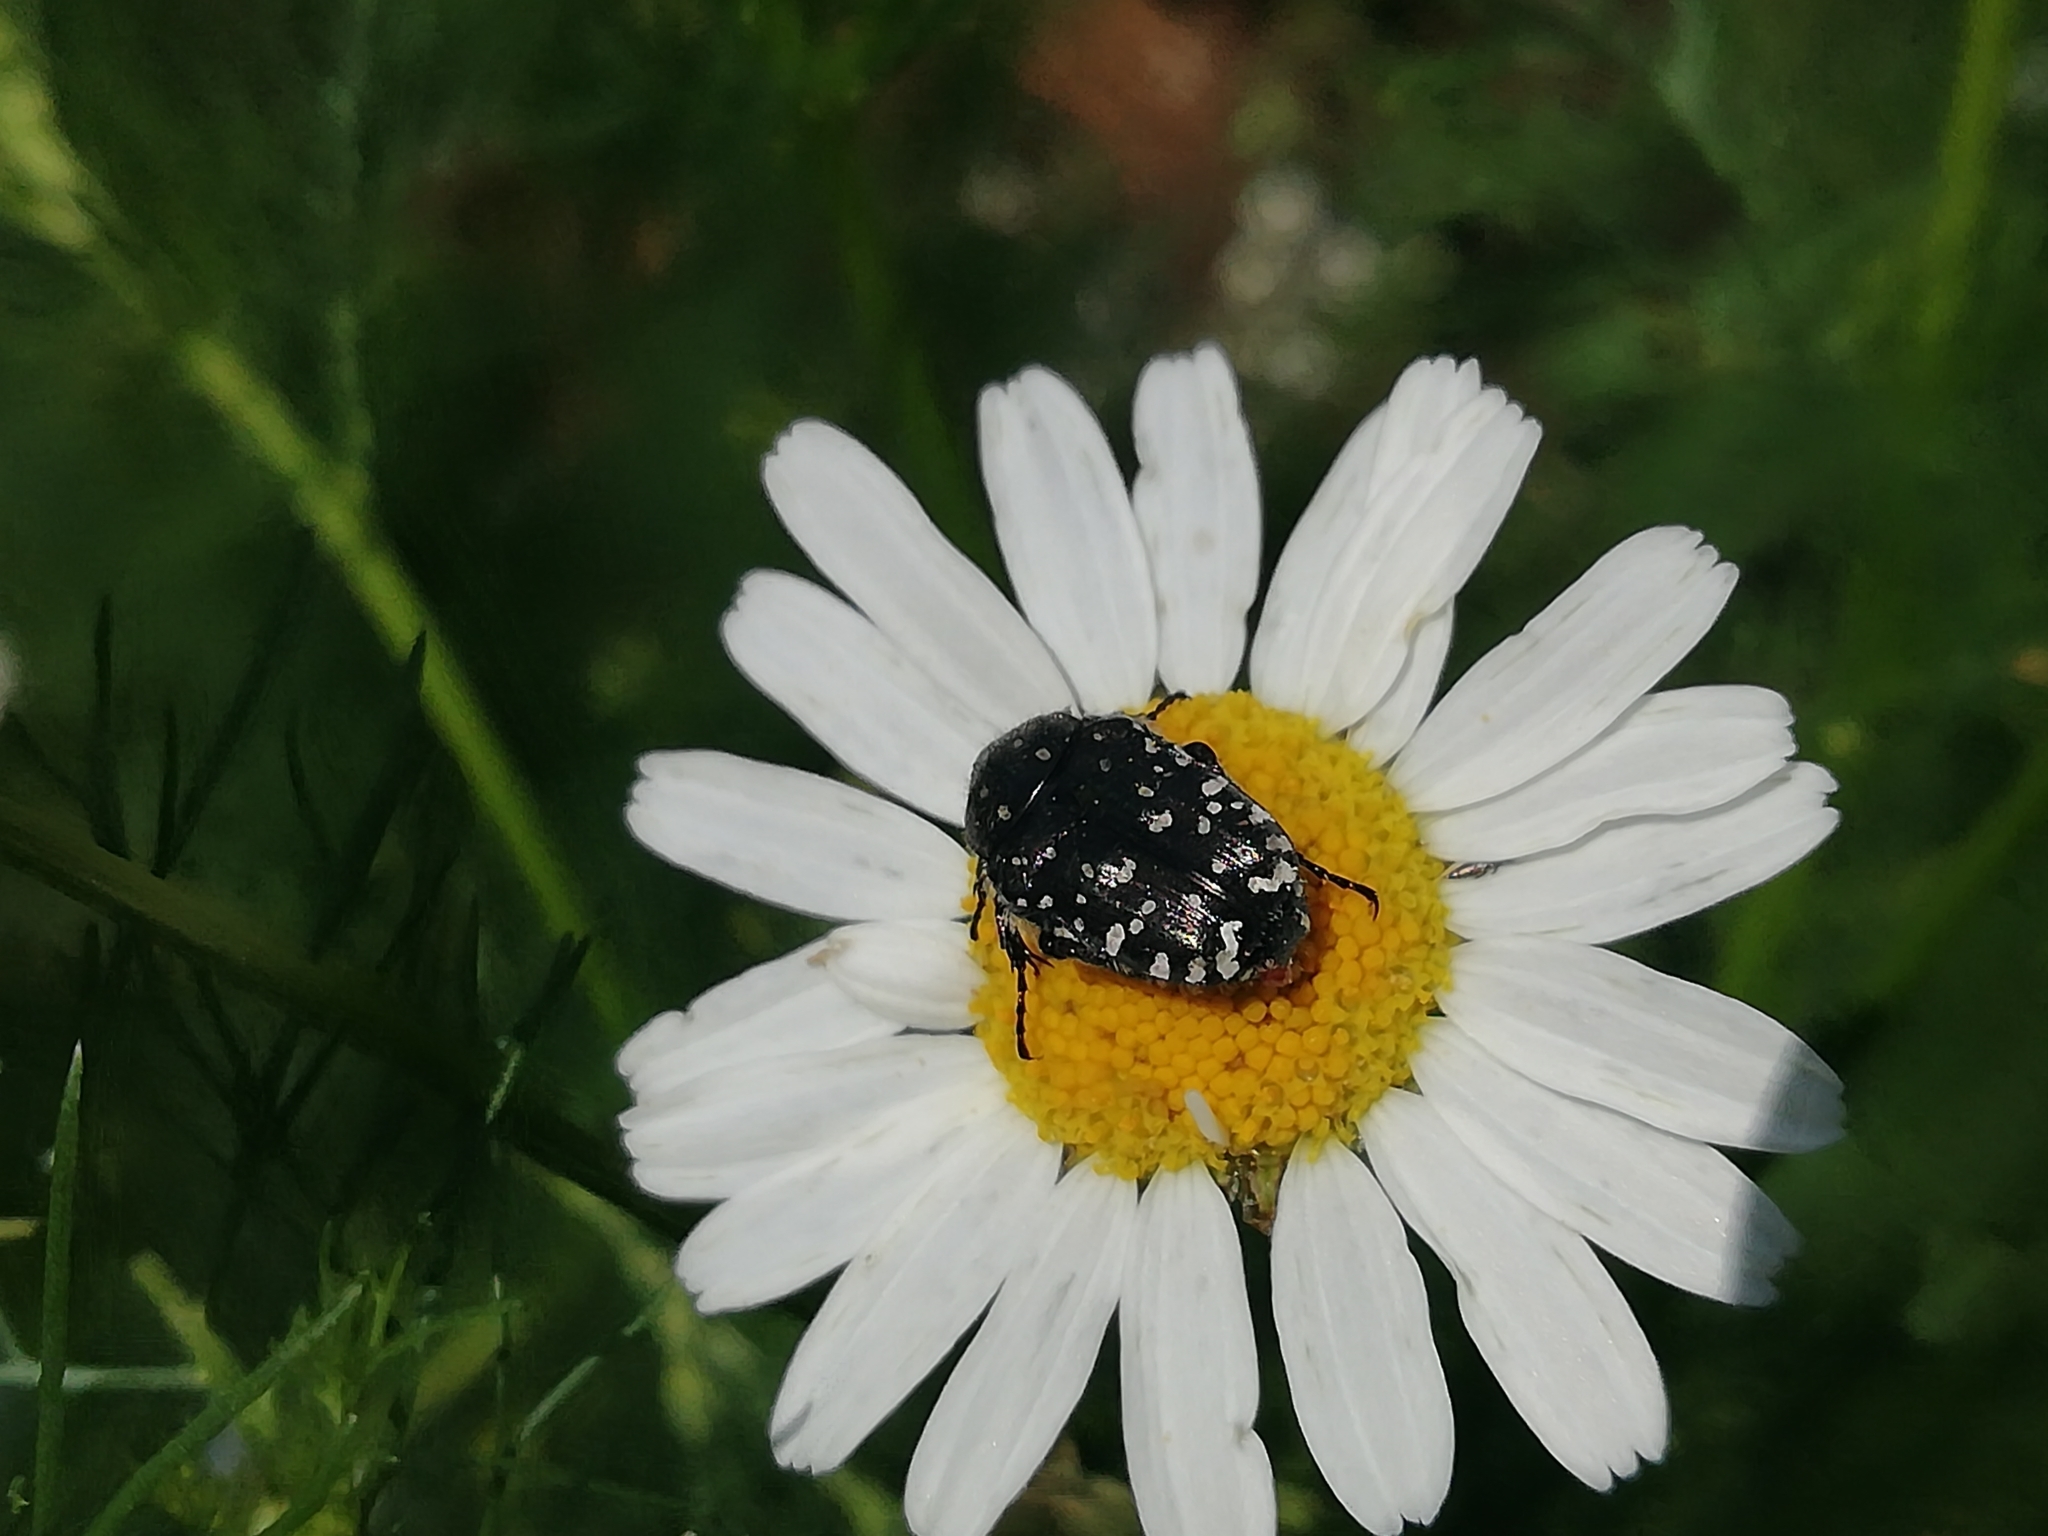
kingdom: Animalia
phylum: Arthropoda
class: Insecta
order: Coleoptera
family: Scarabaeidae
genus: Oxythyrea
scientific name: Oxythyrea funesta
